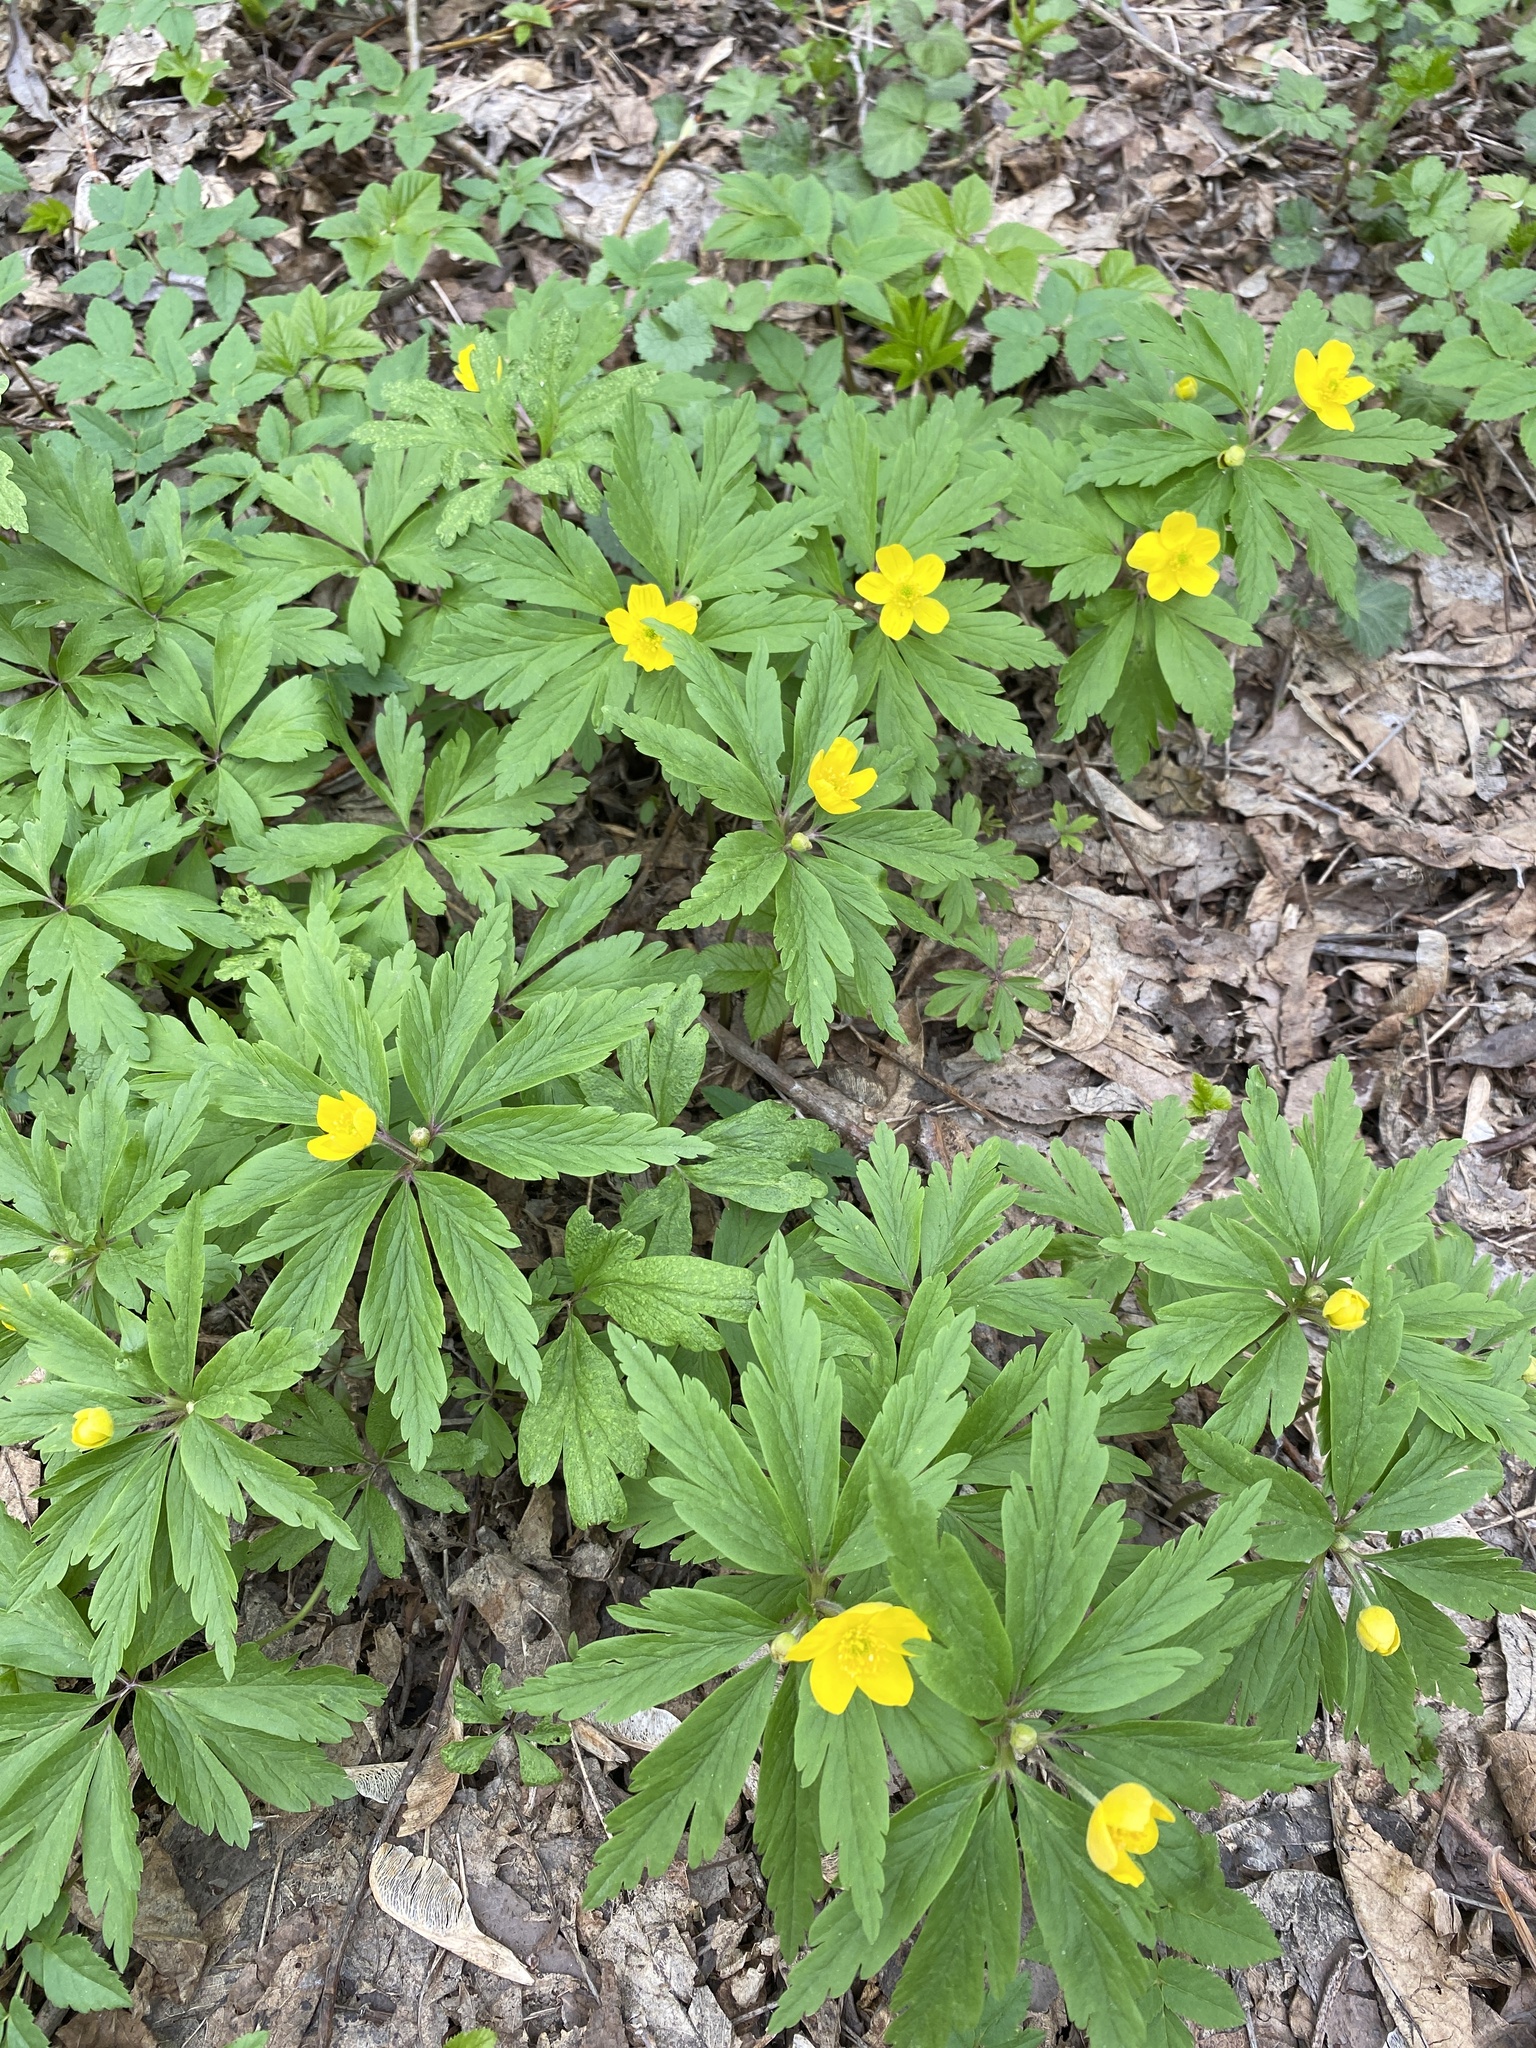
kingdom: Plantae
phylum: Tracheophyta
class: Magnoliopsida
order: Ranunculales
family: Ranunculaceae
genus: Anemone
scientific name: Anemone ranunculoides
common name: Yellow anemone
